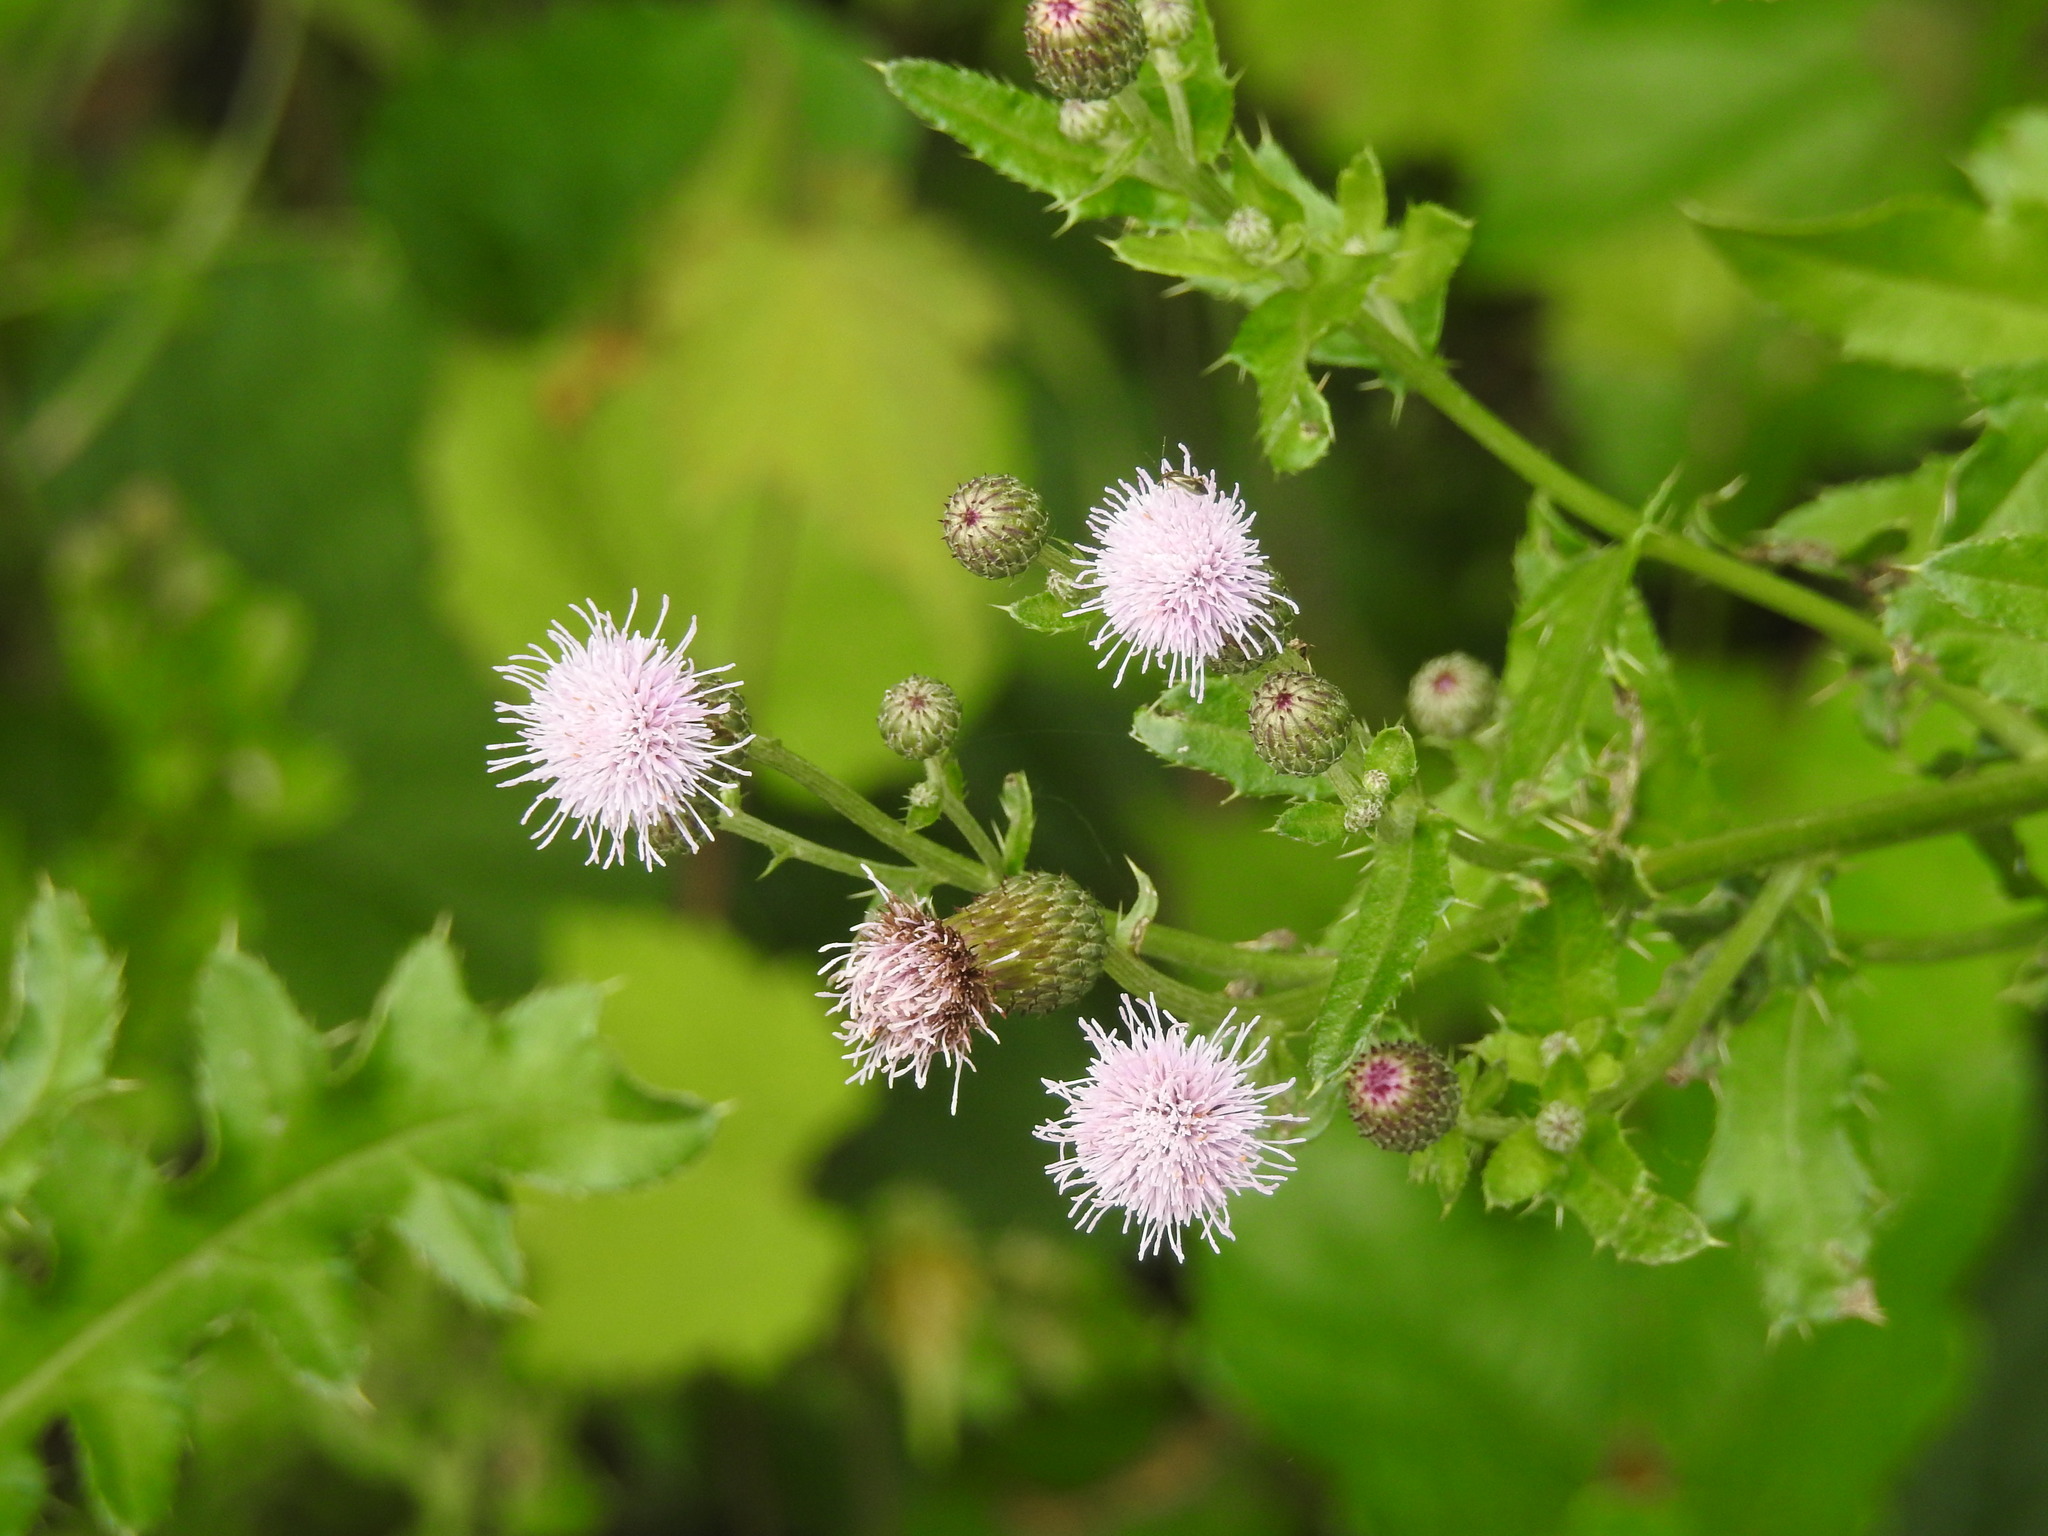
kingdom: Plantae
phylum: Tracheophyta
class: Magnoliopsida
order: Asterales
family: Asteraceae
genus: Cirsium
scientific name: Cirsium arvense
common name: Creeping thistle
